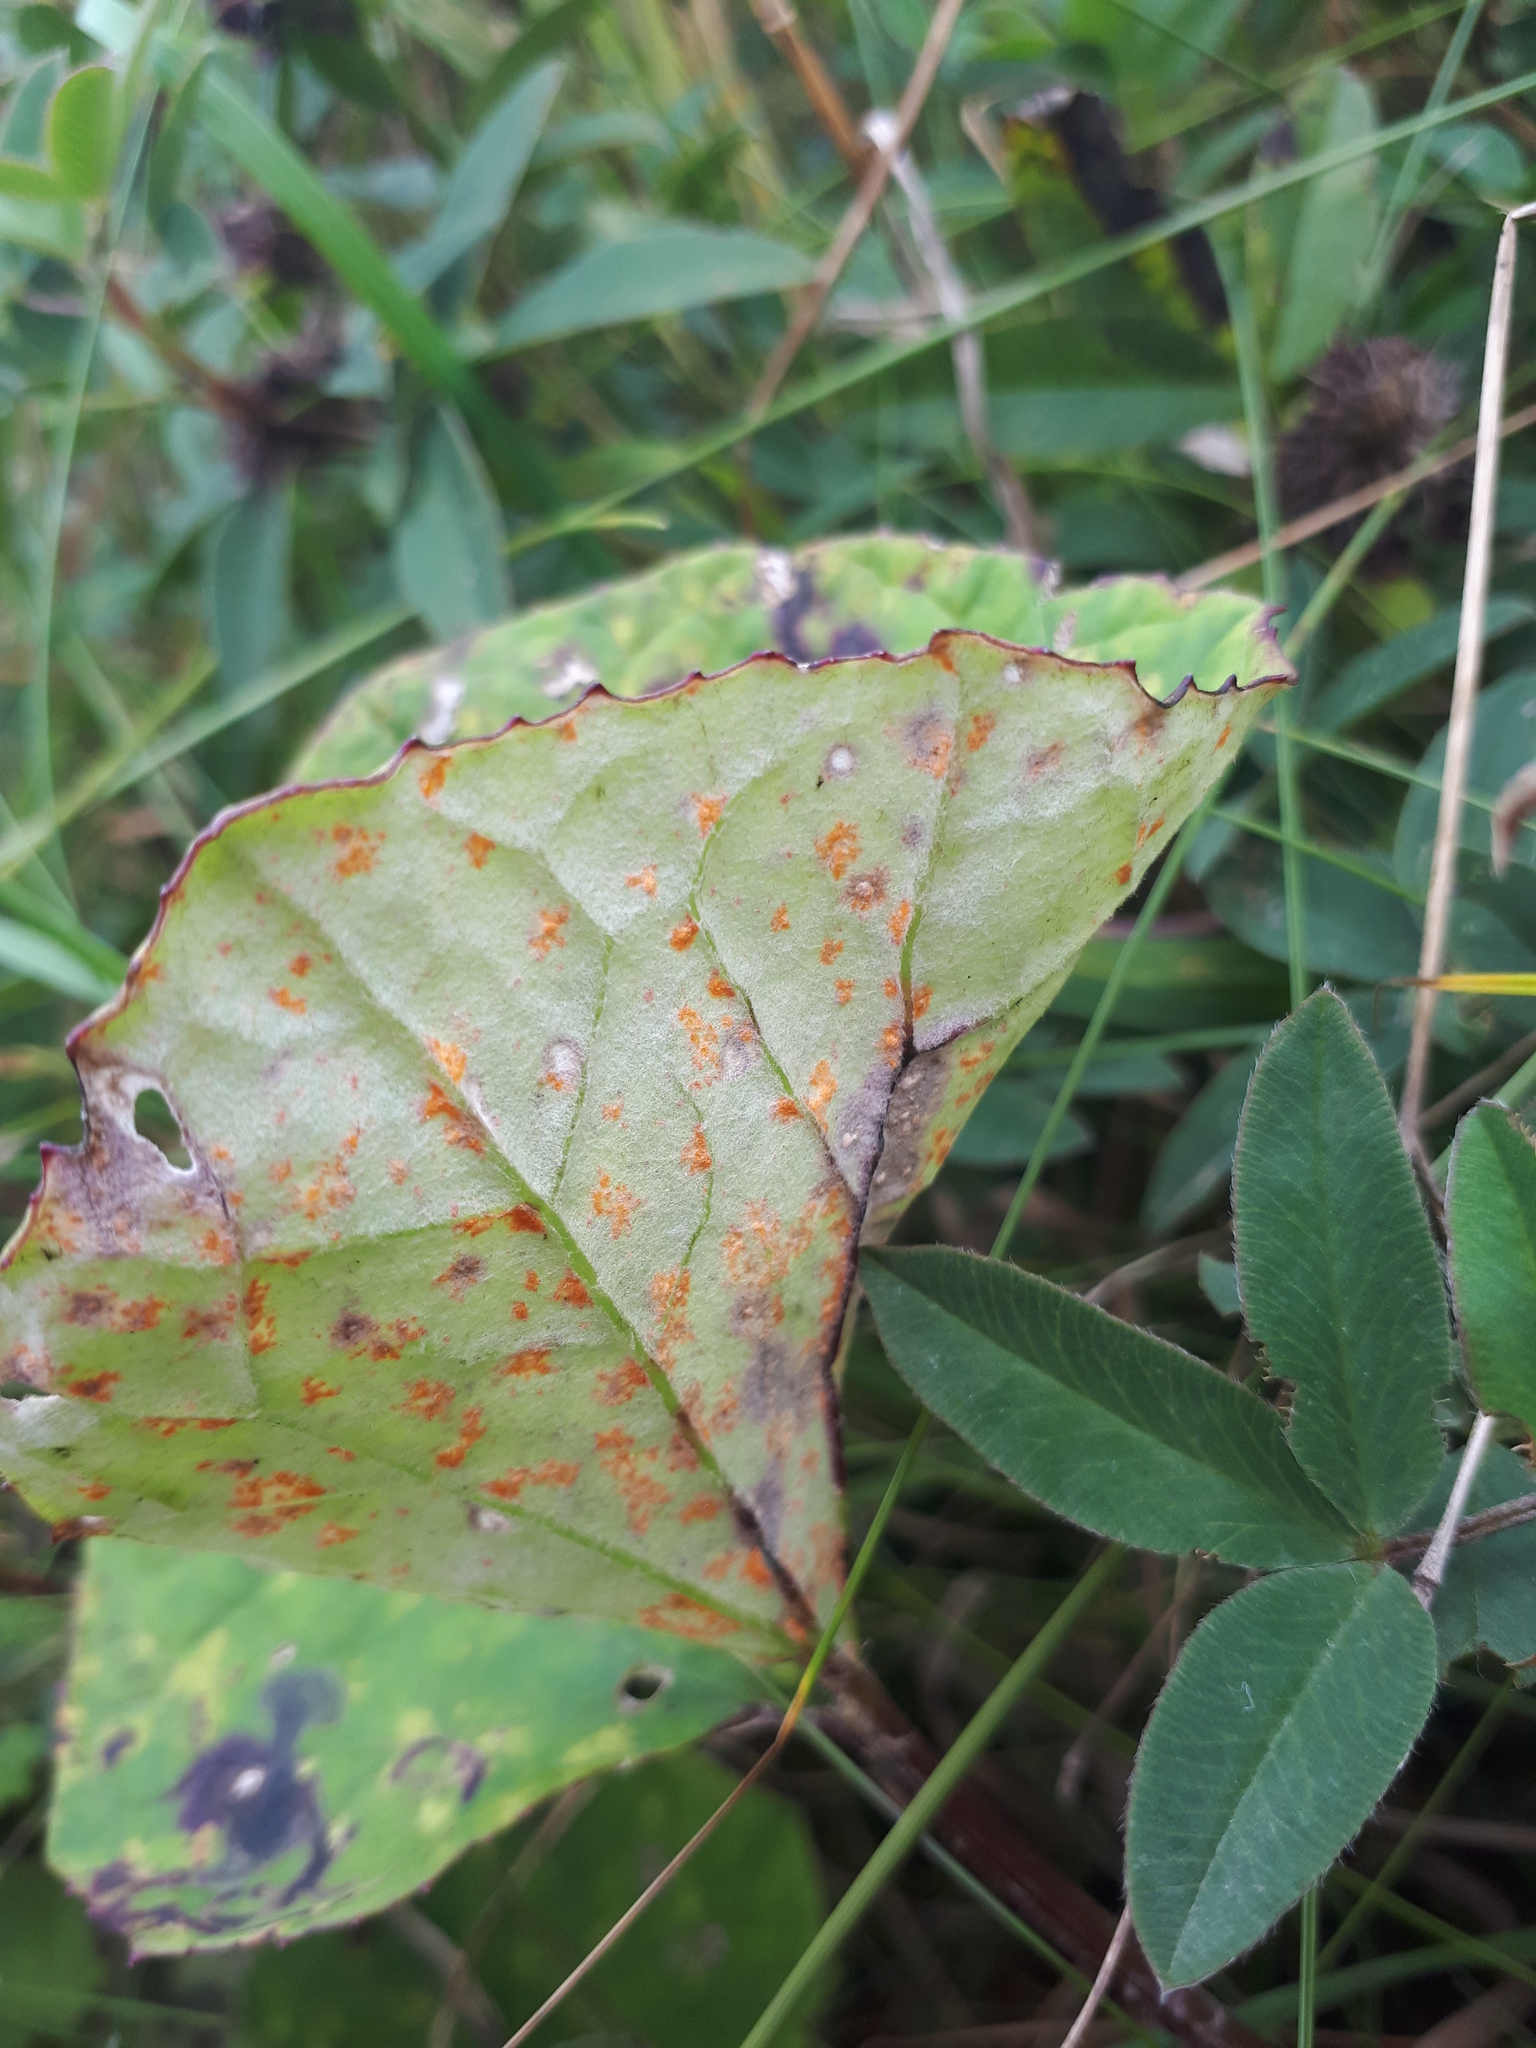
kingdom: Fungi
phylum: Basidiomycota
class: Pucciniomycetes
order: Pucciniales
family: Coleosporiaceae
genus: Coleosporium
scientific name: Coleosporium tussilaginis
